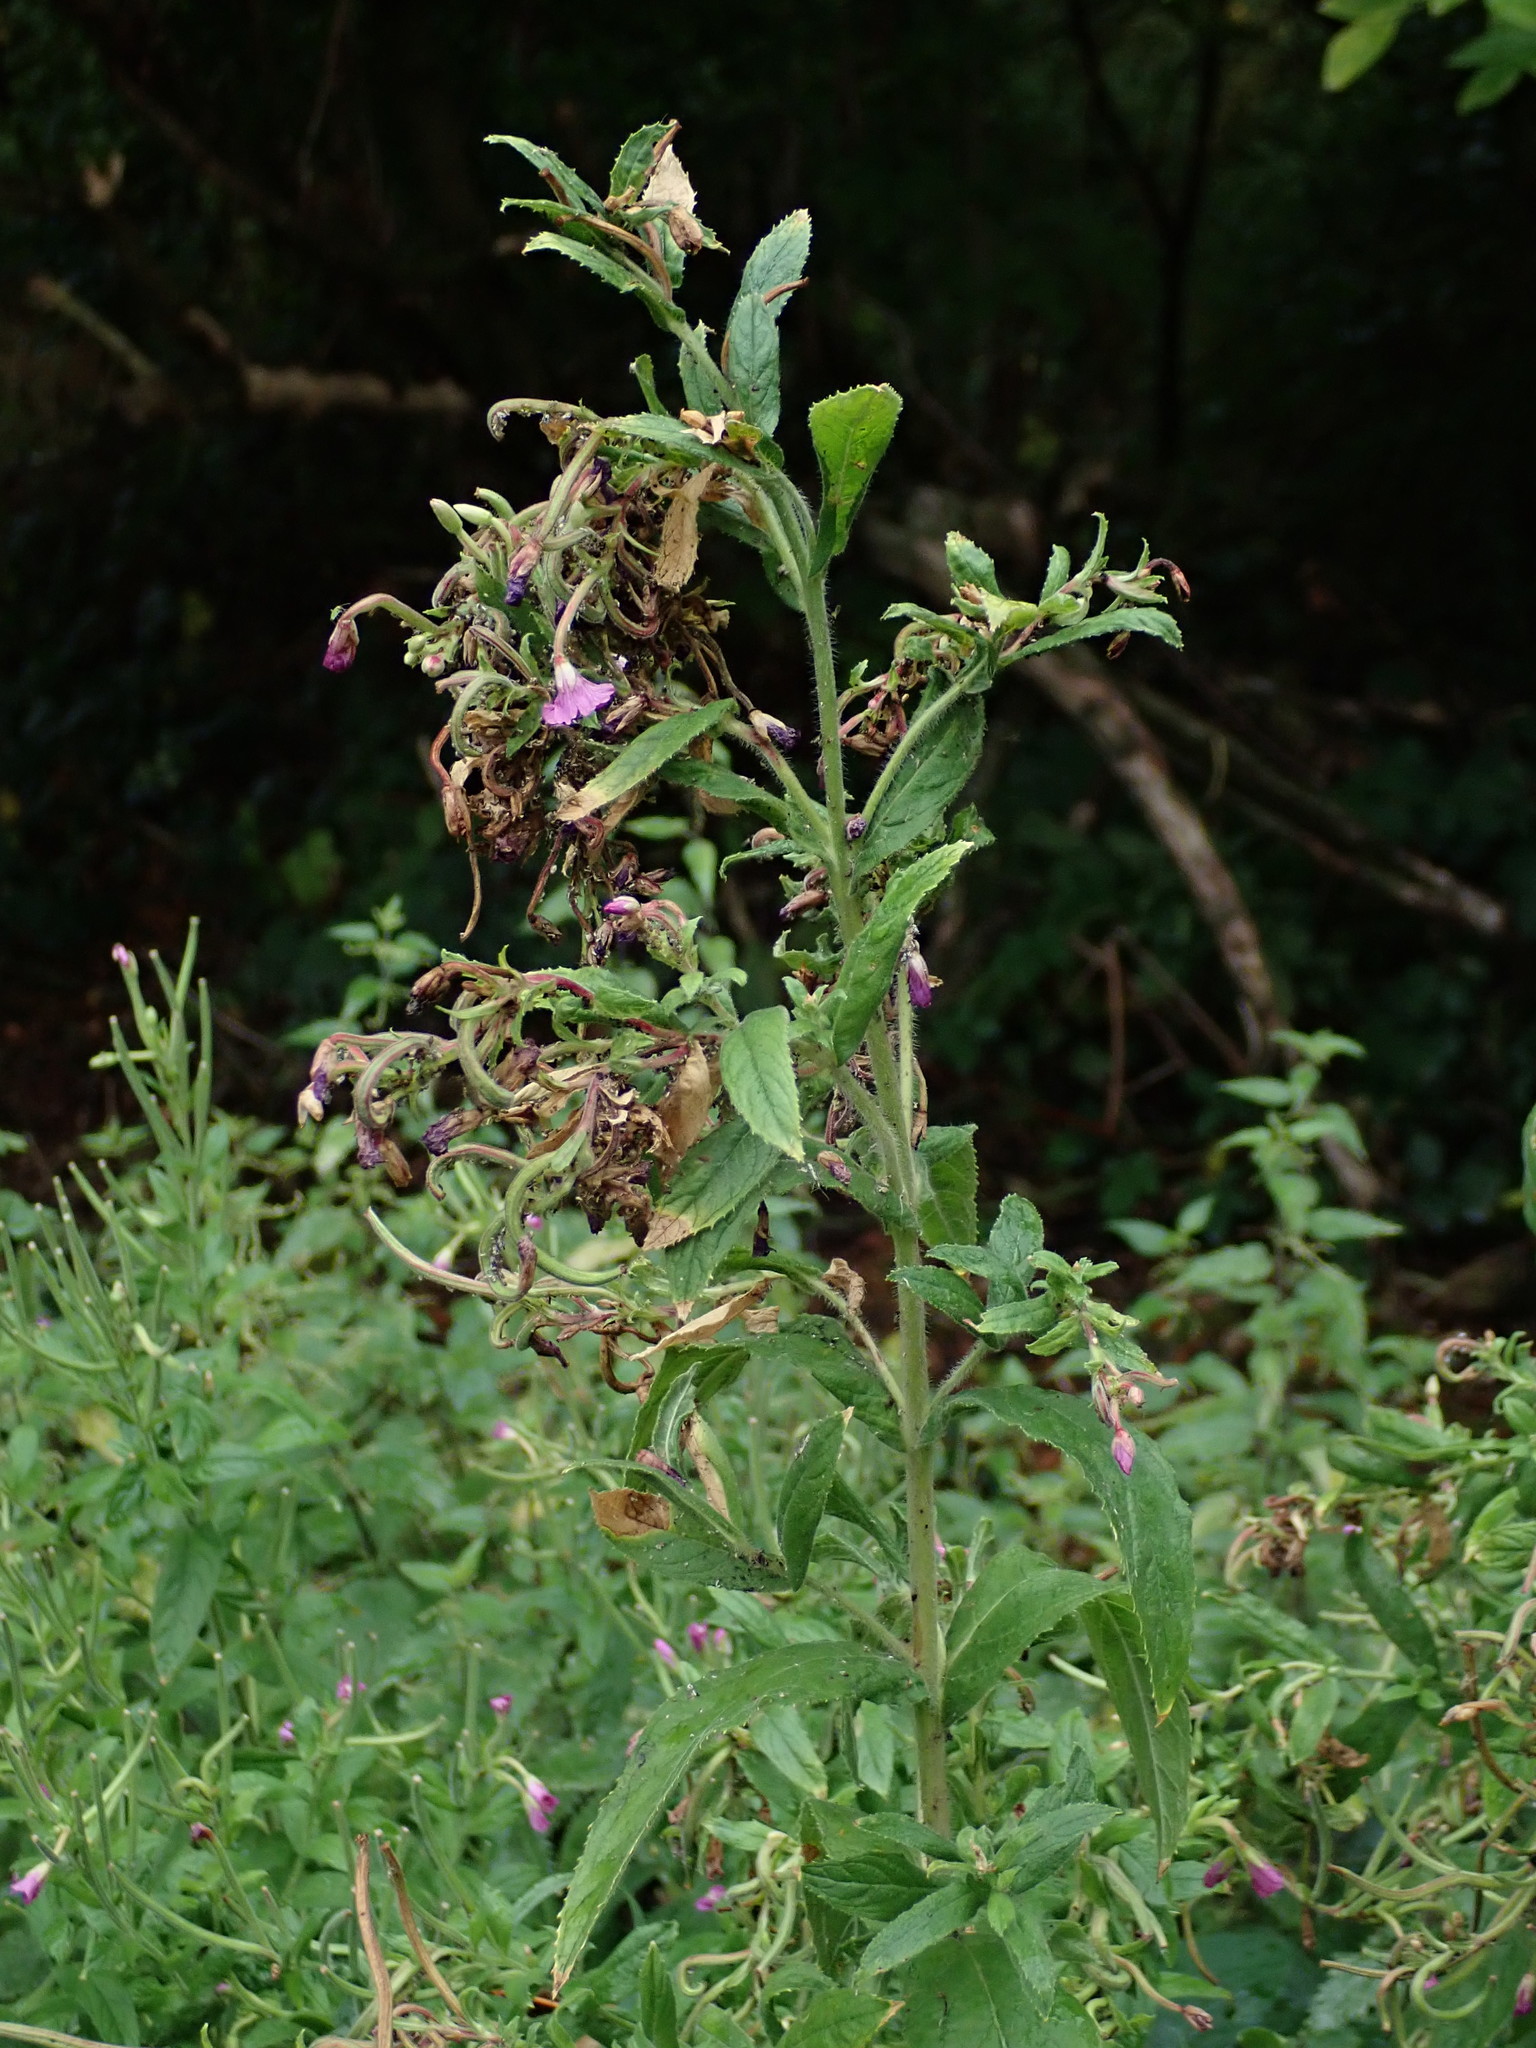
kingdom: Plantae
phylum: Tracheophyta
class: Magnoliopsida
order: Myrtales
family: Onagraceae
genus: Epilobium
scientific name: Epilobium hirsutum
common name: Great willowherb
